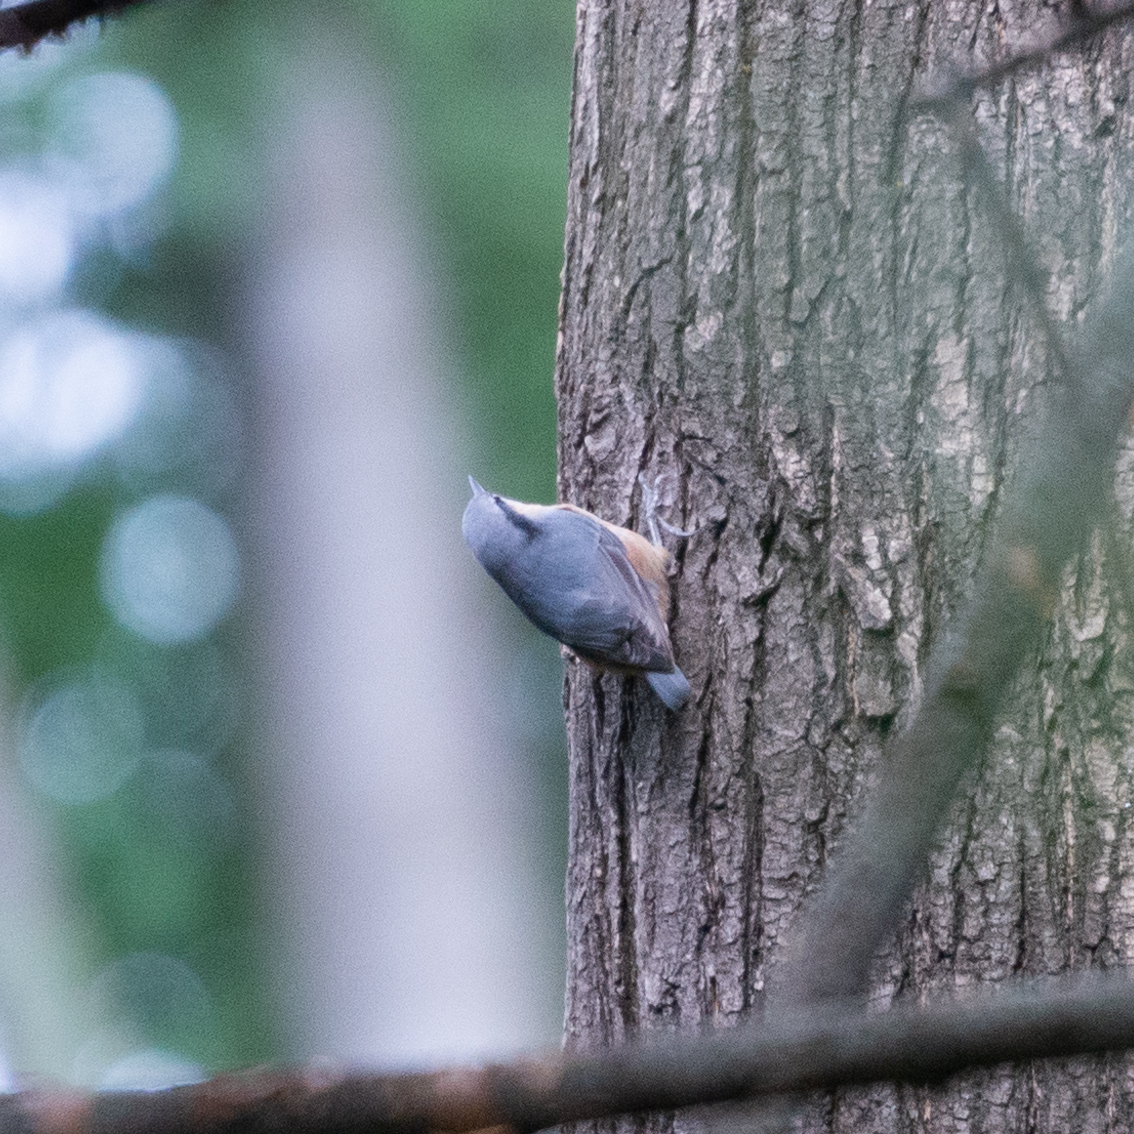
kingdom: Animalia
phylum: Chordata
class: Aves
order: Passeriformes
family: Sittidae
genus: Sitta
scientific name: Sitta europaea
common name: Eurasian nuthatch
